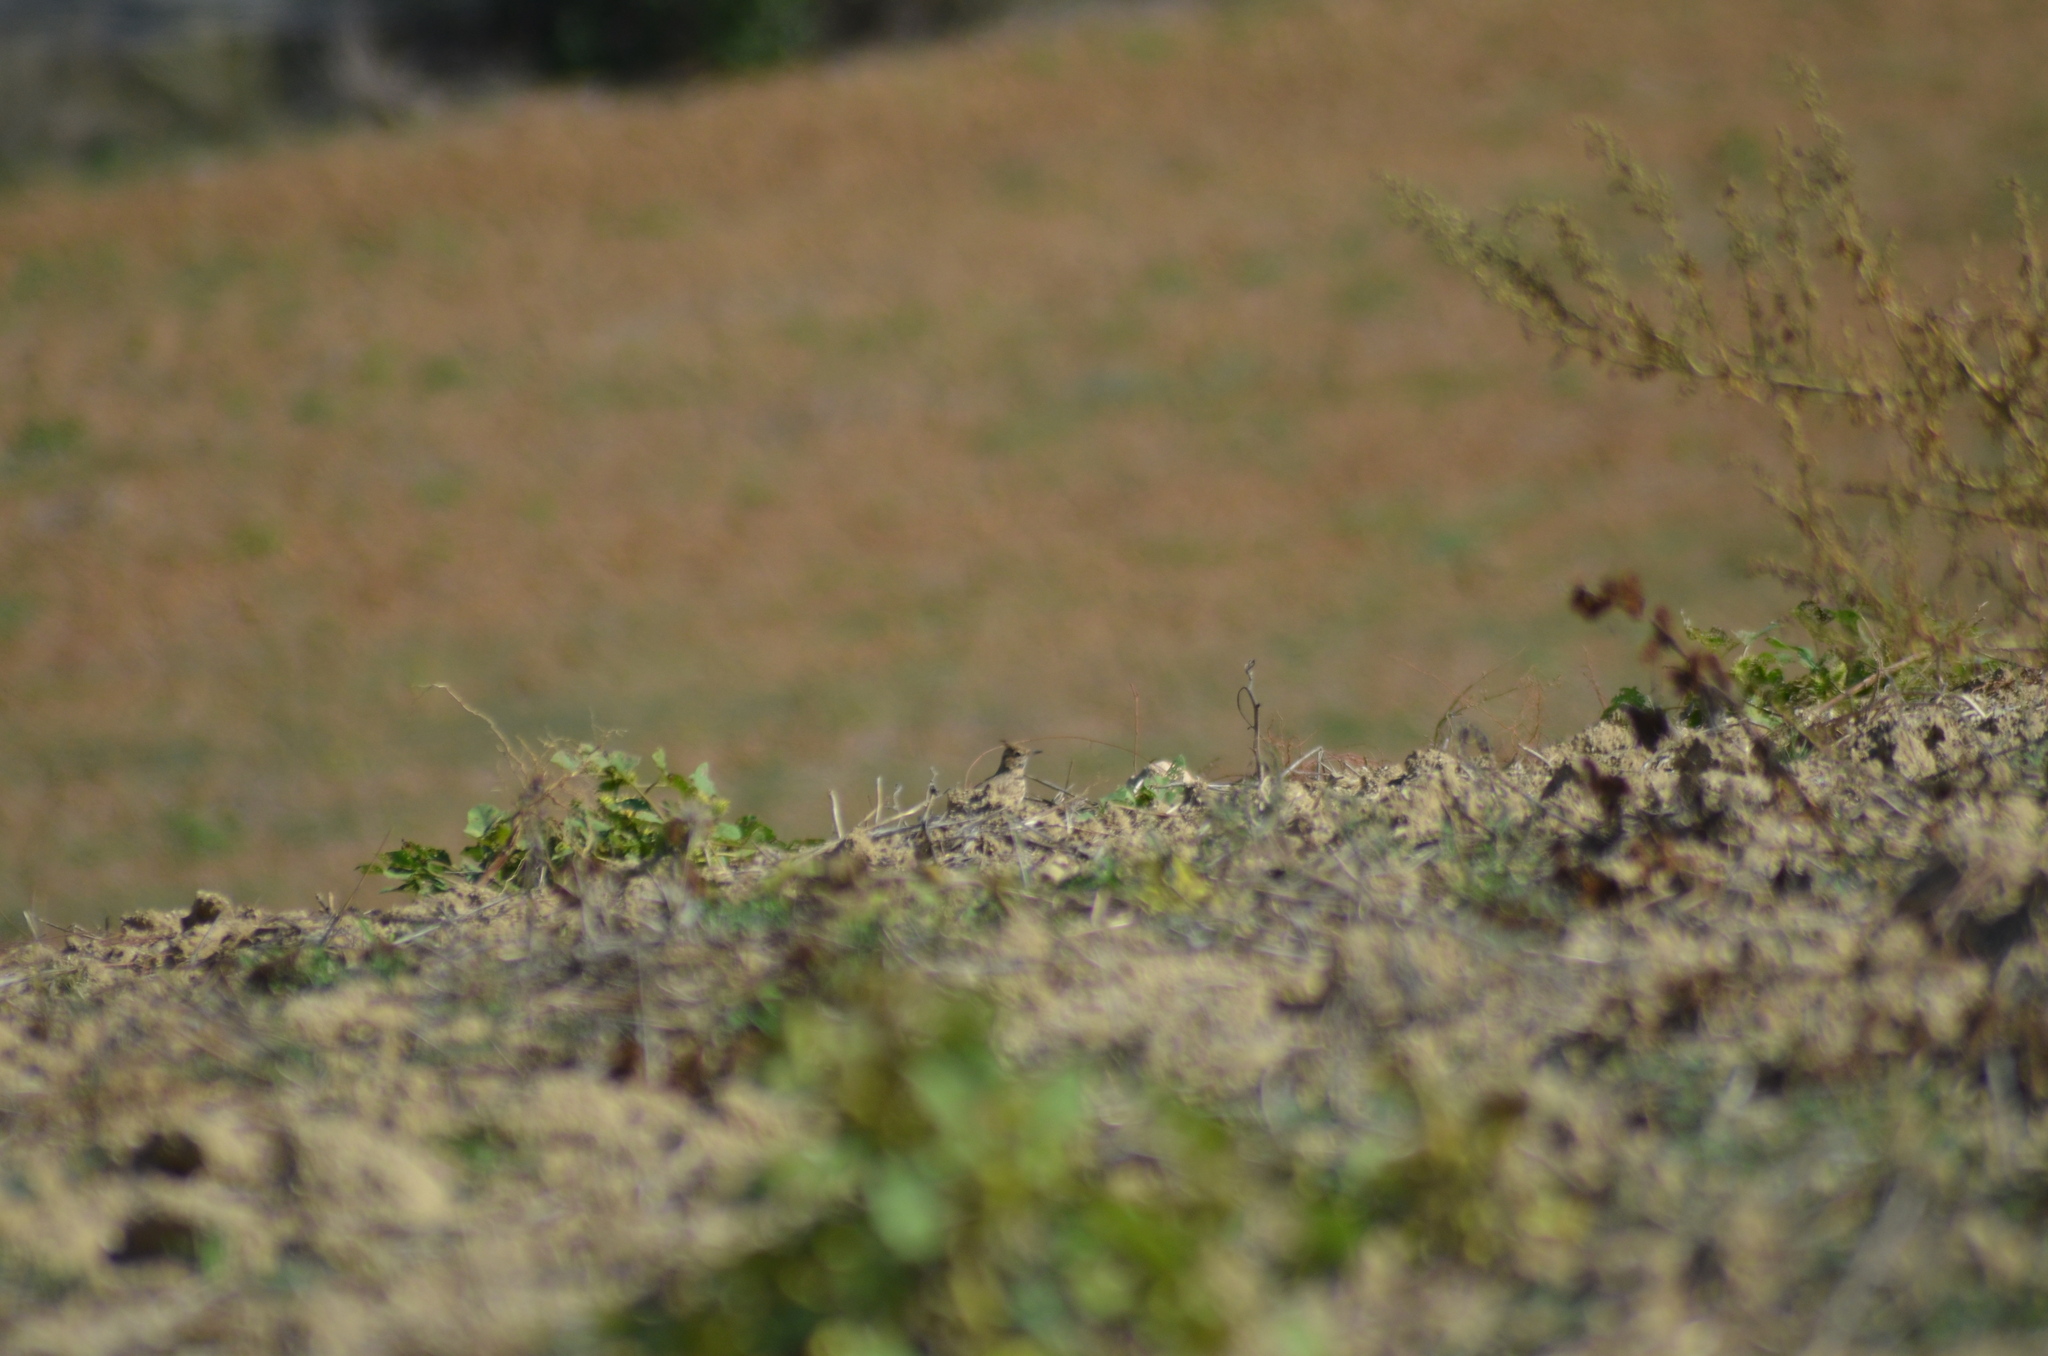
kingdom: Animalia
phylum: Chordata
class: Aves
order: Passeriformes
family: Alaudidae
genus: Galerida
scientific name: Galerida cristata
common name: Crested lark
